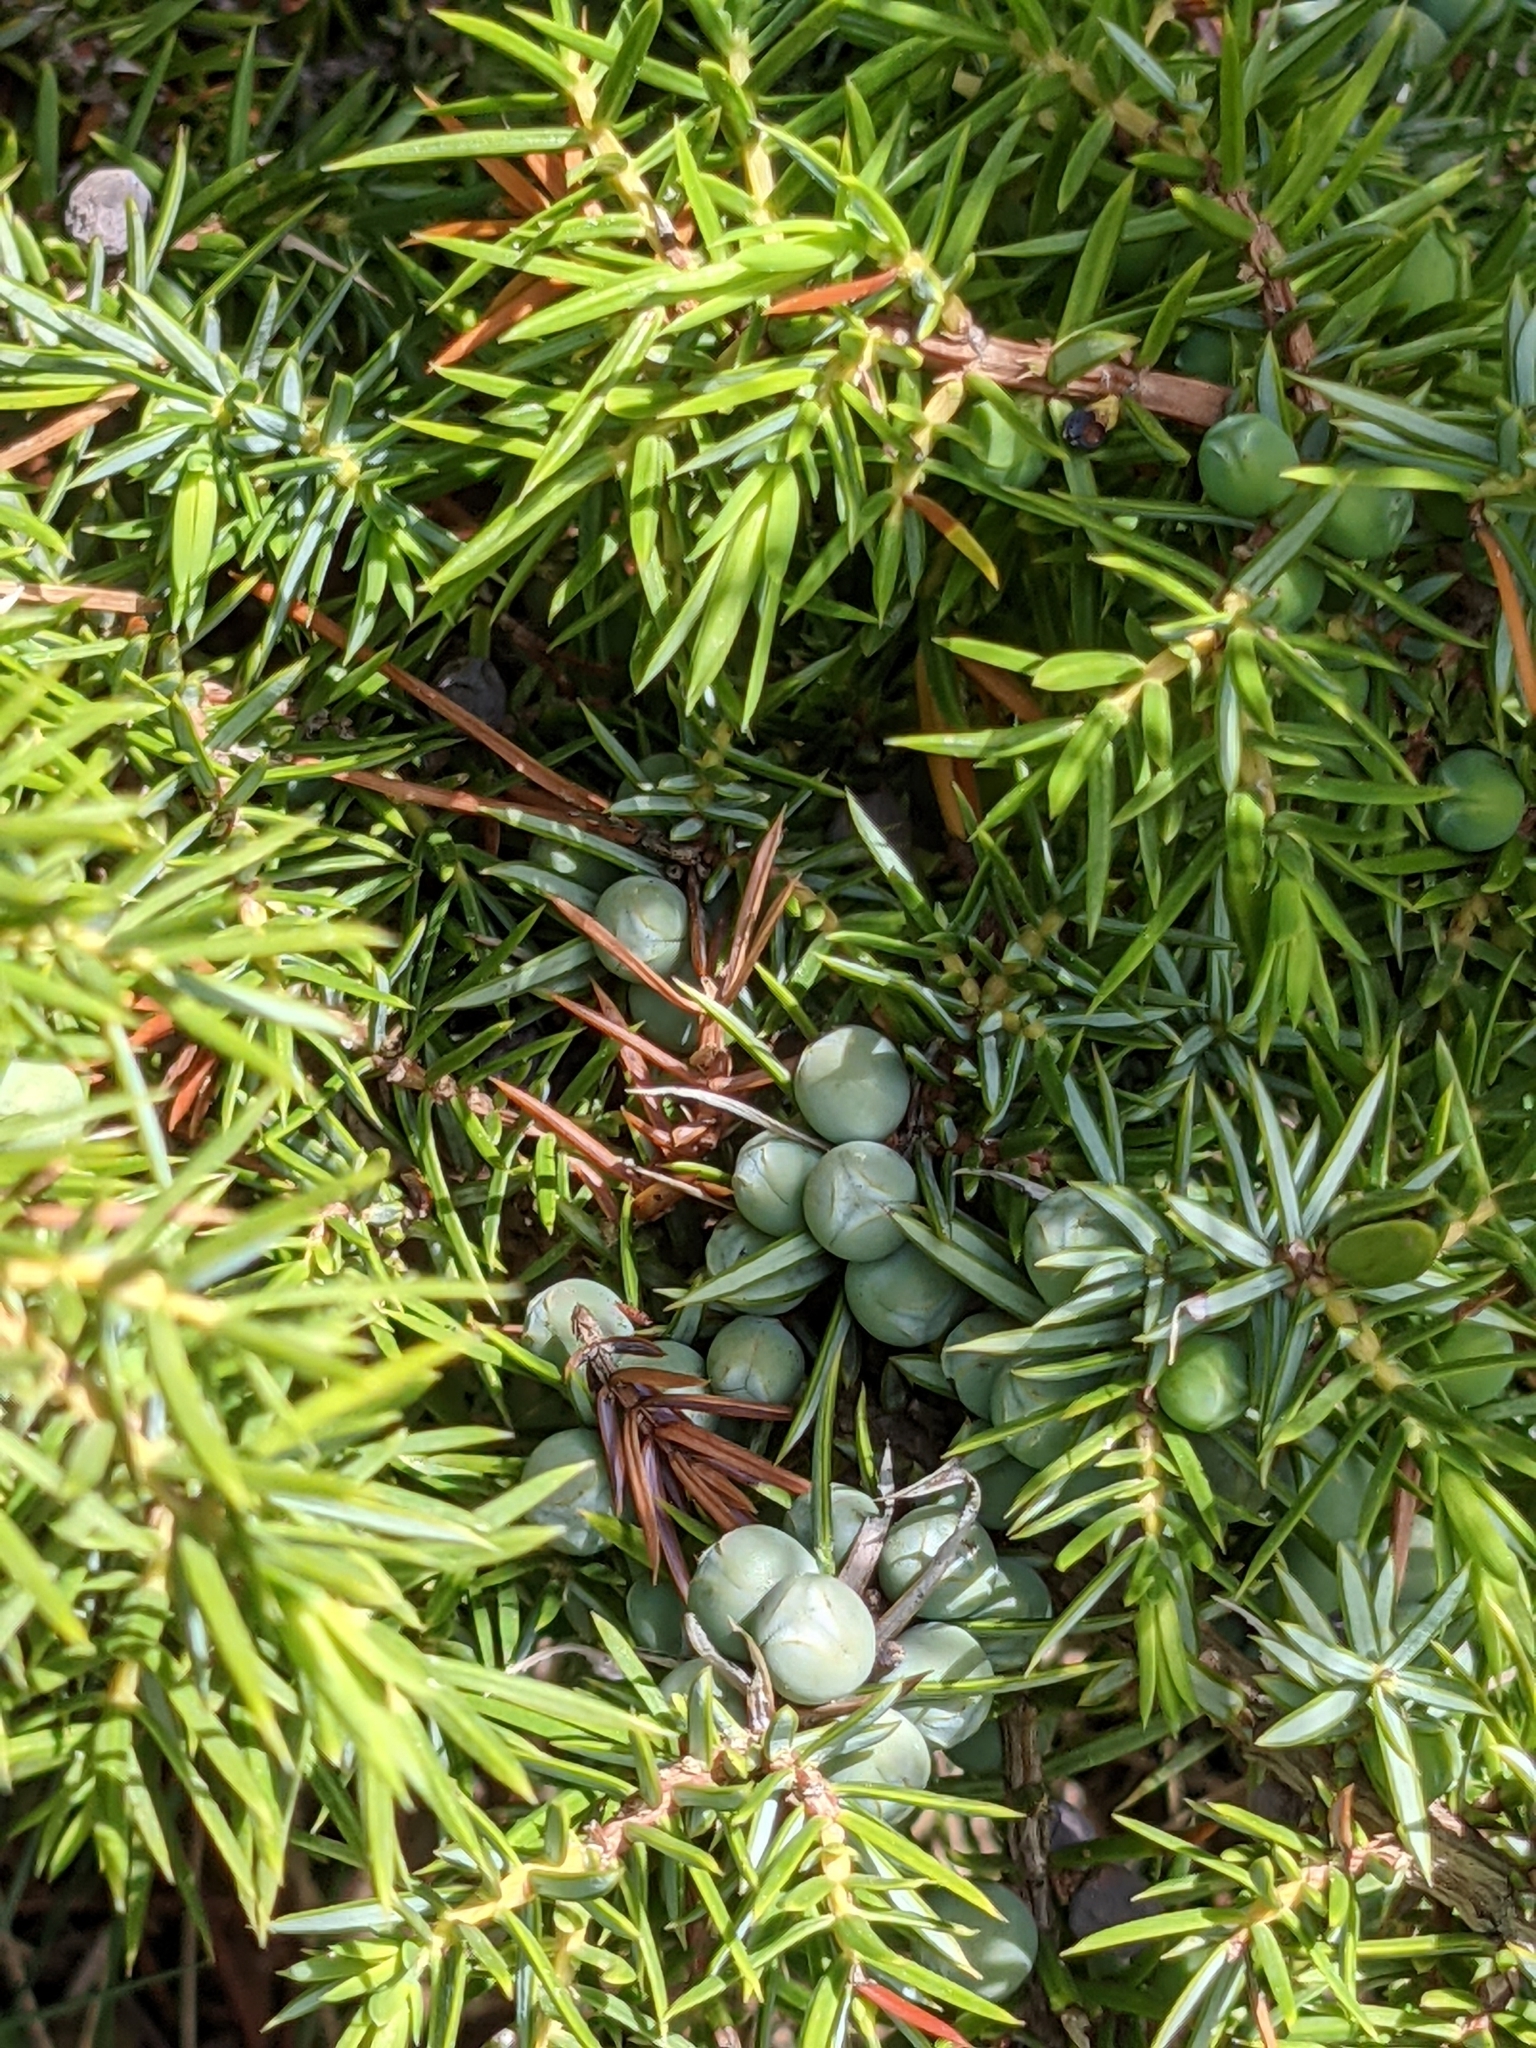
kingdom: Plantae
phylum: Tracheophyta
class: Pinopsida
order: Pinales
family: Cupressaceae
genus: Juniperus
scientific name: Juniperus communis
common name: Common juniper
